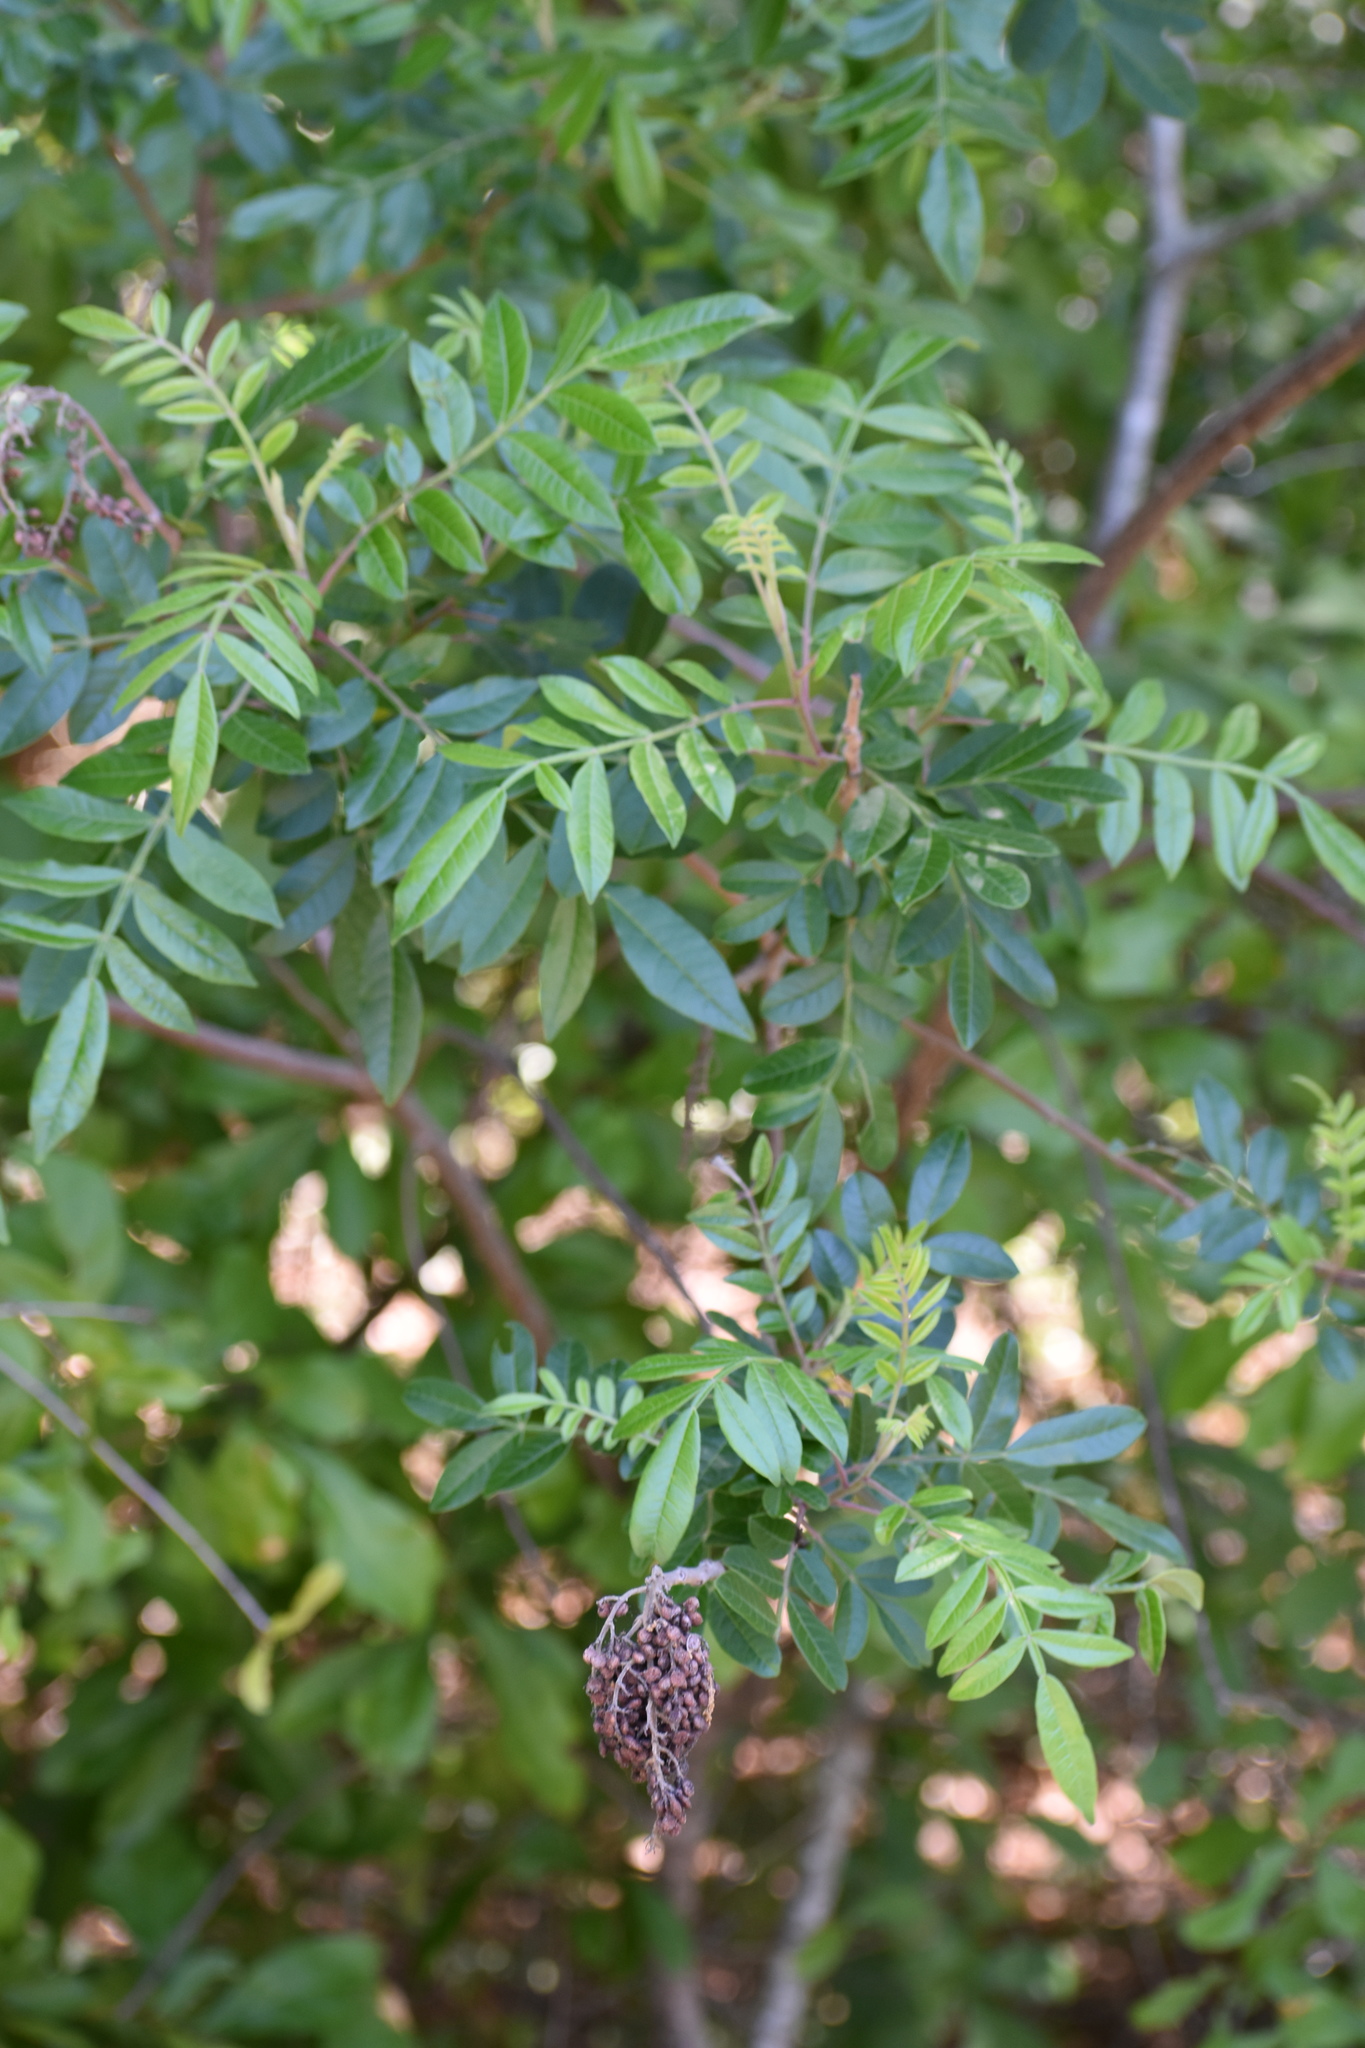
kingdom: Plantae
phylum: Tracheophyta
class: Magnoliopsida
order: Sapindales
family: Anacardiaceae
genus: Rhus
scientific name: Rhus copallina
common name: Shining sumac
